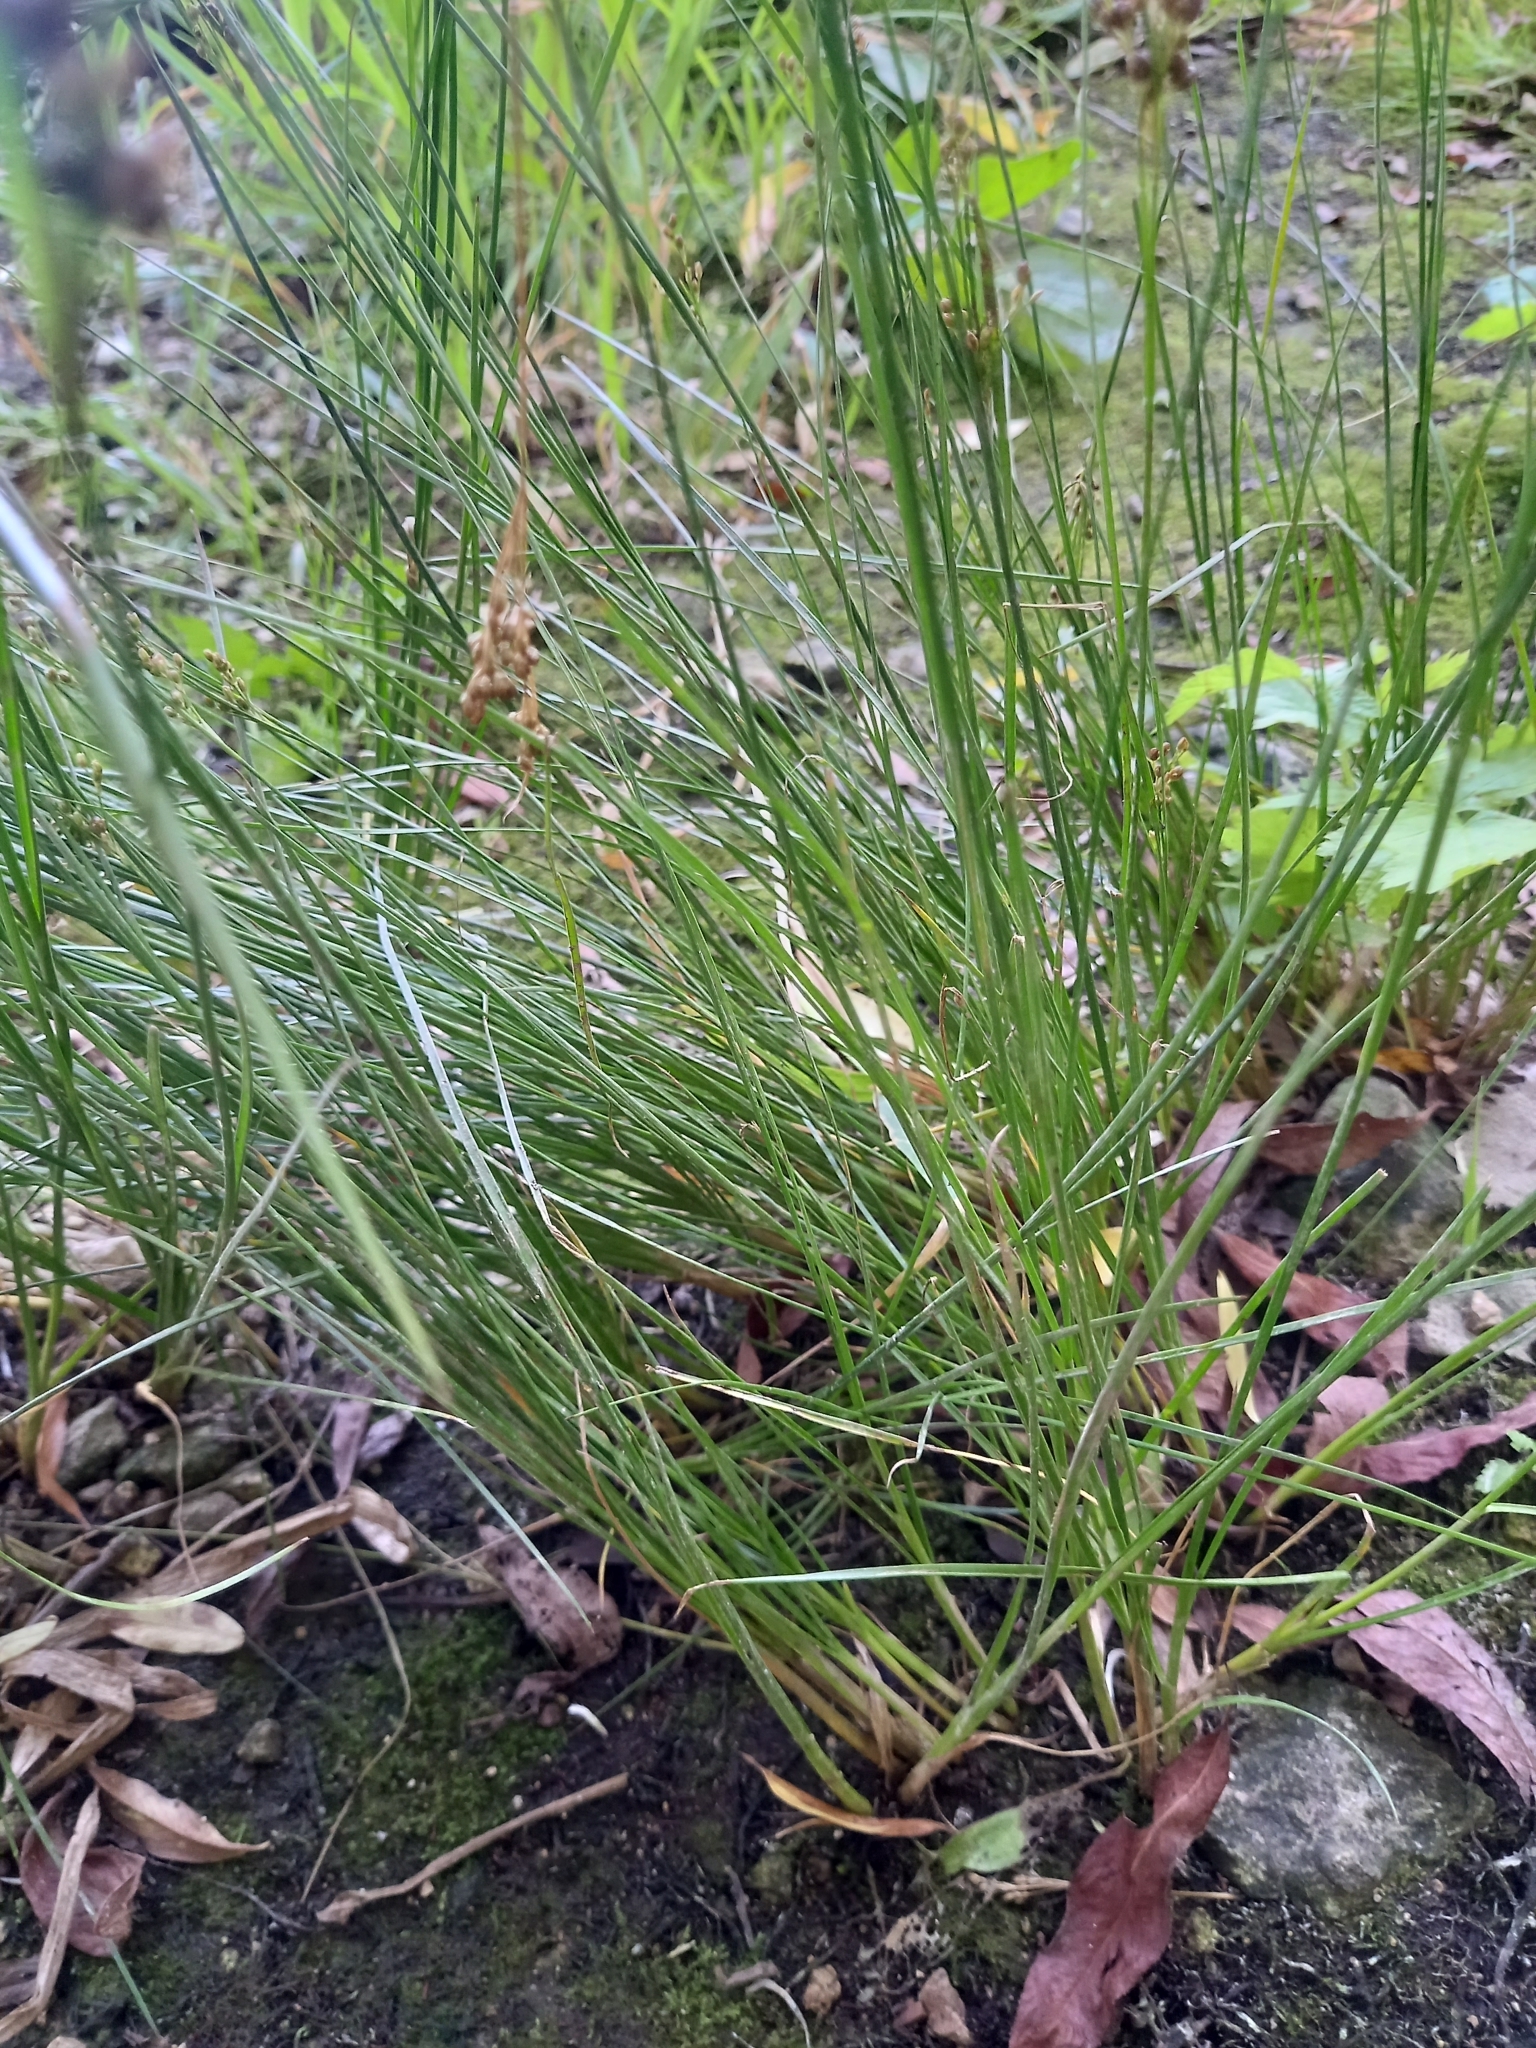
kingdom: Plantae
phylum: Tracheophyta
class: Liliopsida
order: Poales
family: Juncaceae
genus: Juncus
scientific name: Juncus compressus
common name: Round-fruited rush
